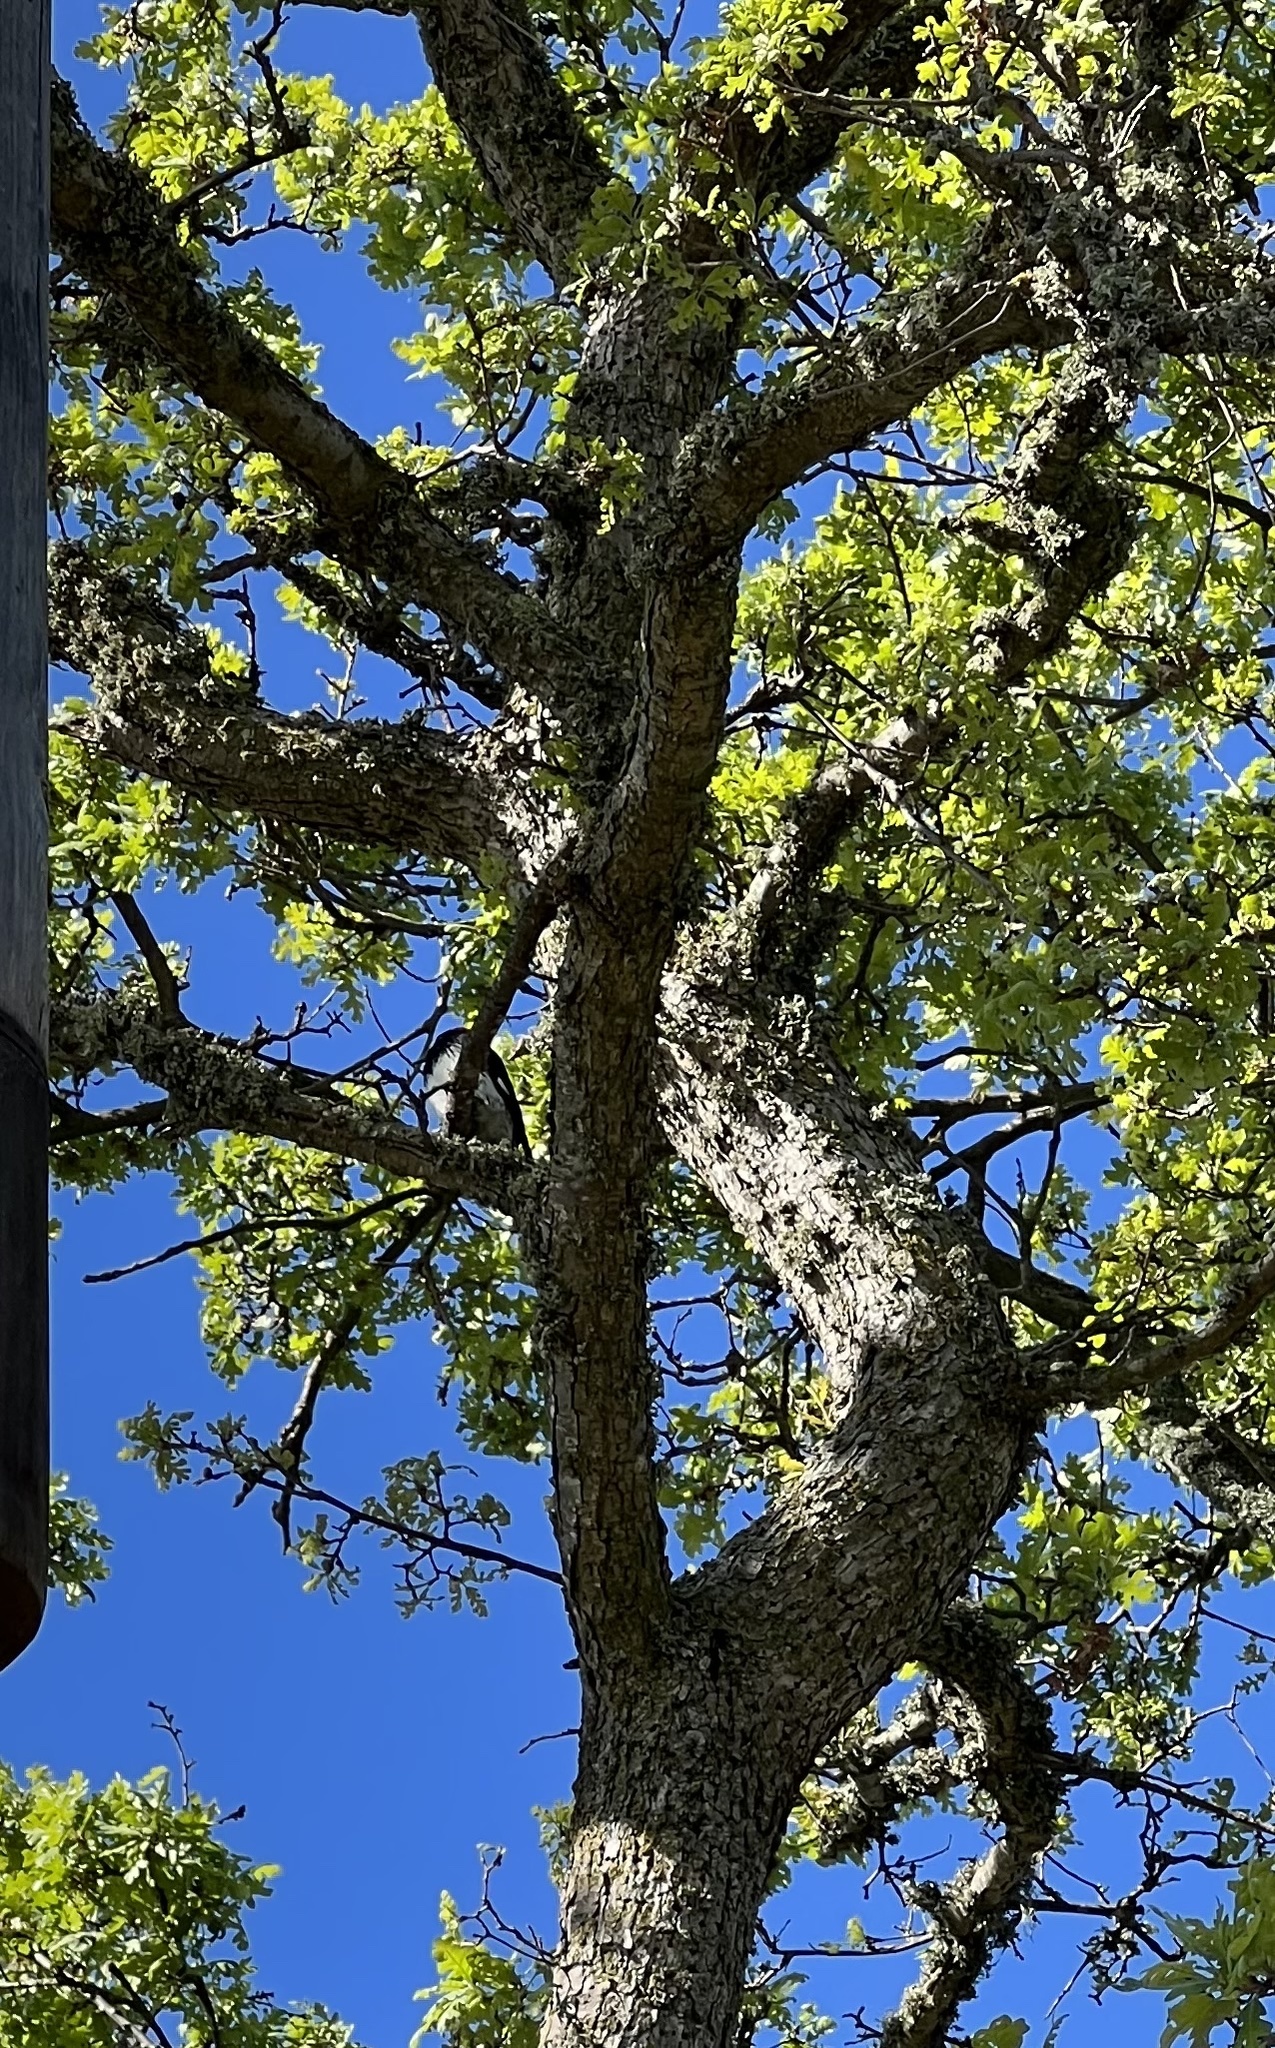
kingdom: Animalia
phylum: Chordata
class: Aves
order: Piciformes
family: Picidae
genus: Melanerpes
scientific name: Melanerpes formicivorus
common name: Acorn woodpecker
